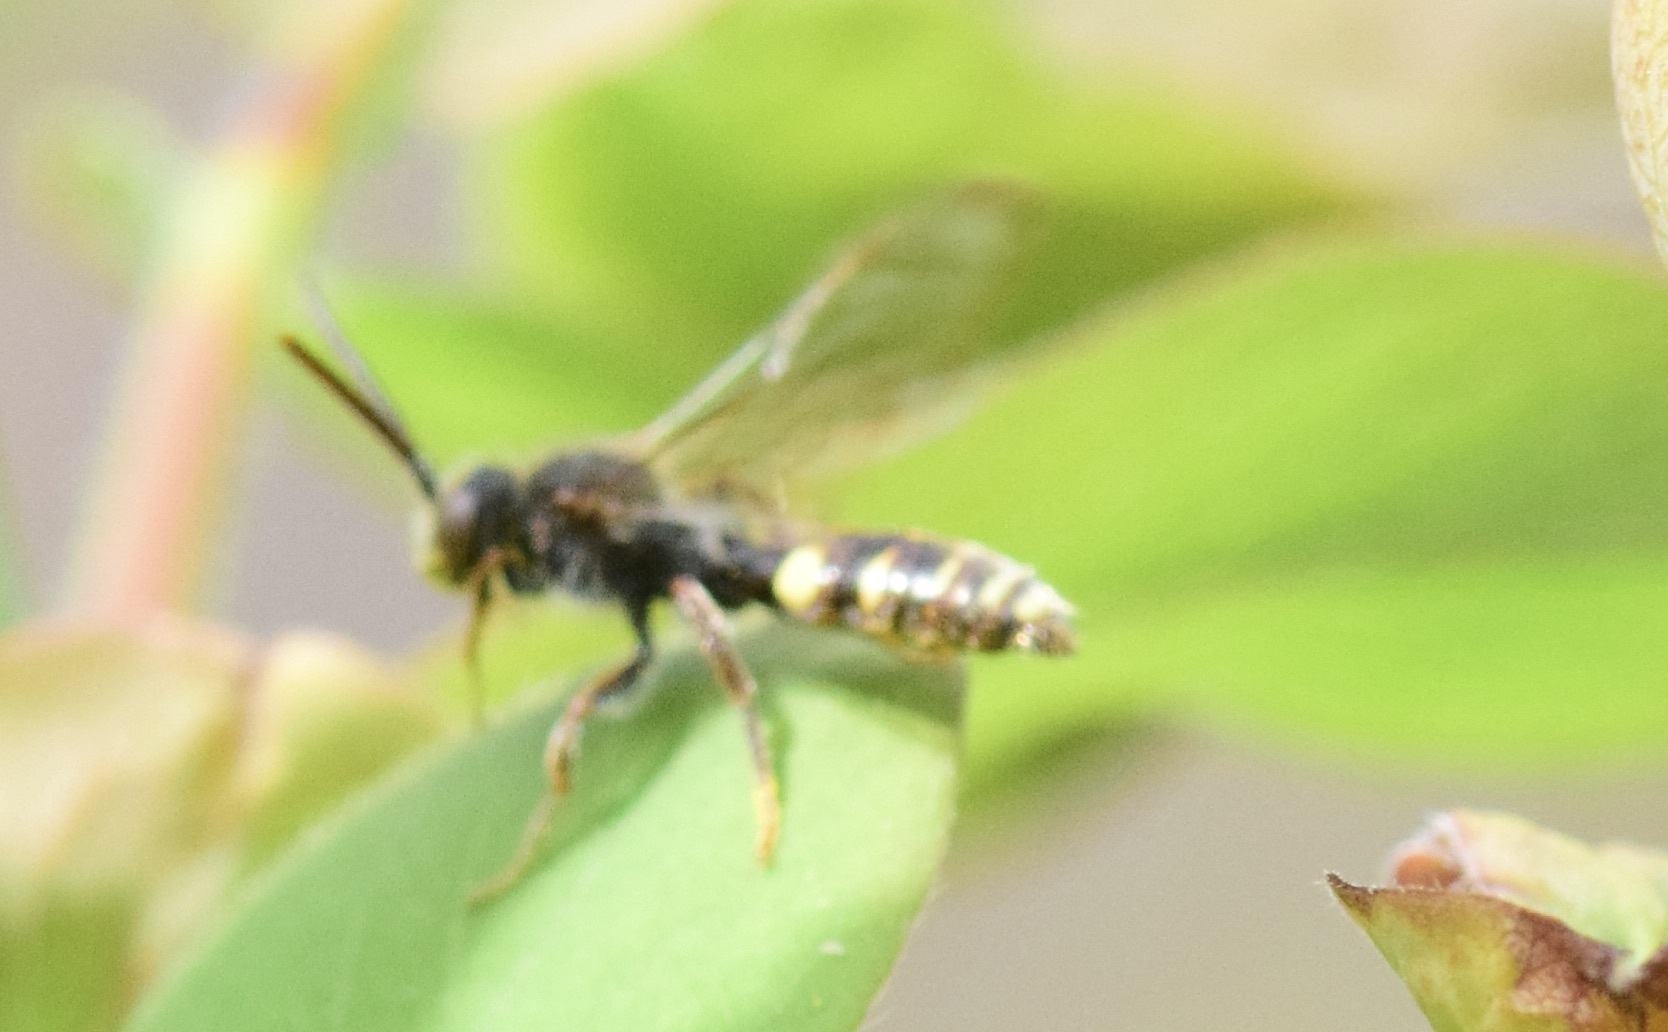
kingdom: Animalia
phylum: Arthropoda
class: Insecta
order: Hymenoptera
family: Apidae
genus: Nomada
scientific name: Nomada gracilis
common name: Slender cuckoo nomad bee
